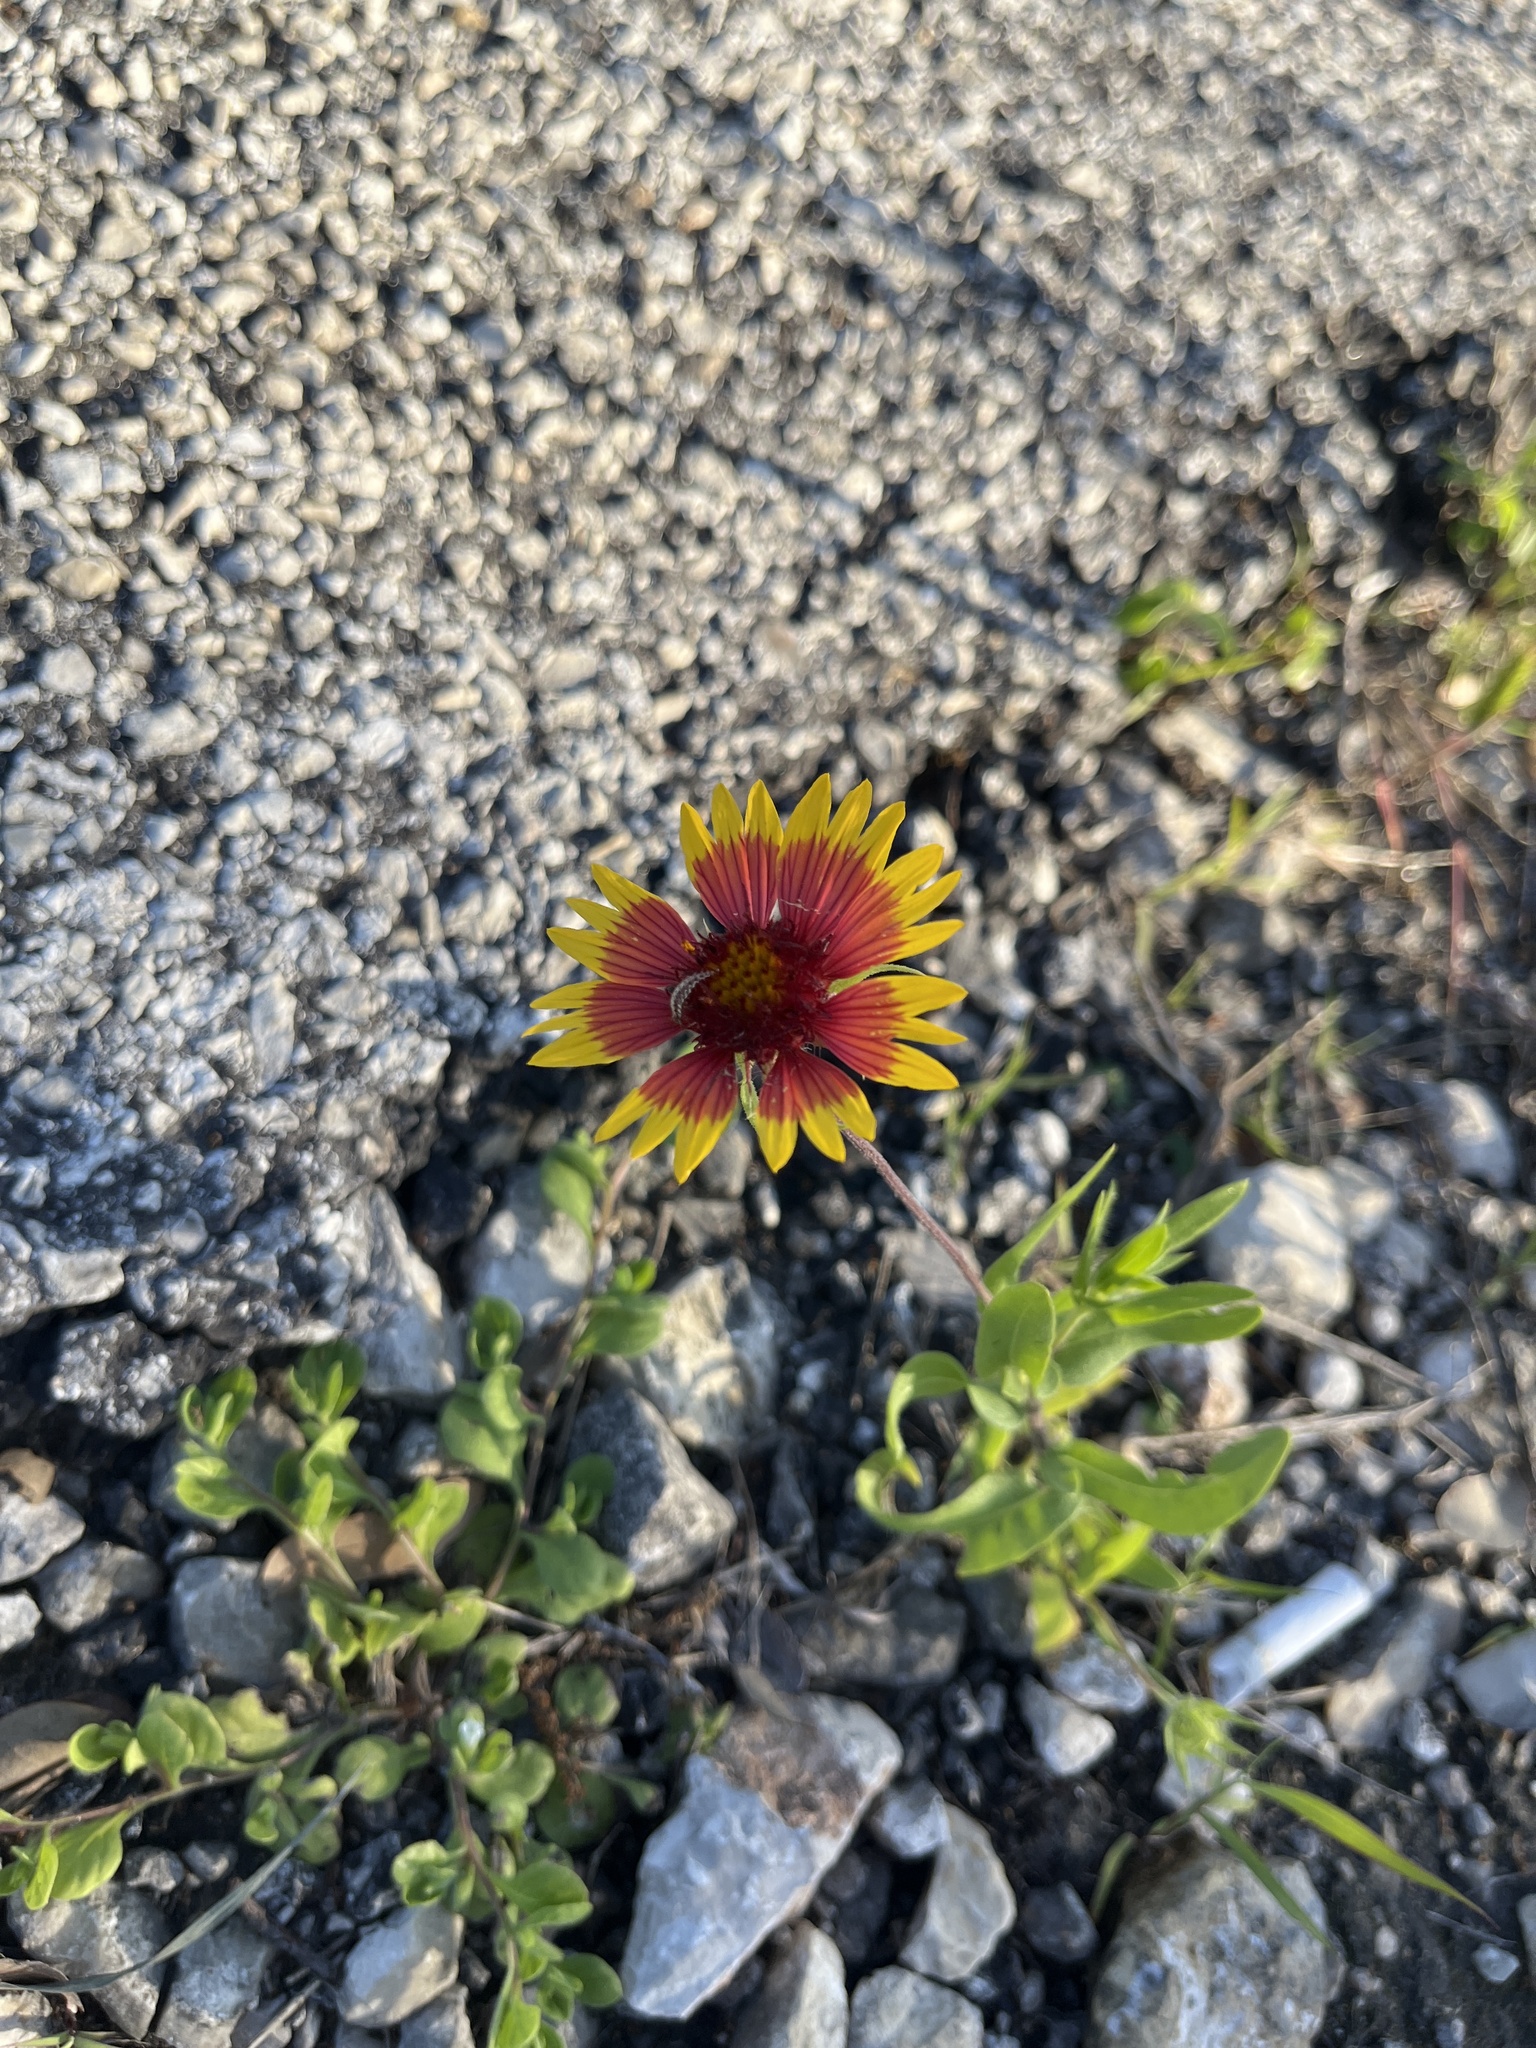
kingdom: Plantae
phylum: Tracheophyta
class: Magnoliopsida
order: Asterales
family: Asteraceae
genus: Gaillardia
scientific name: Gaillardia pulchella
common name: Firewheel
